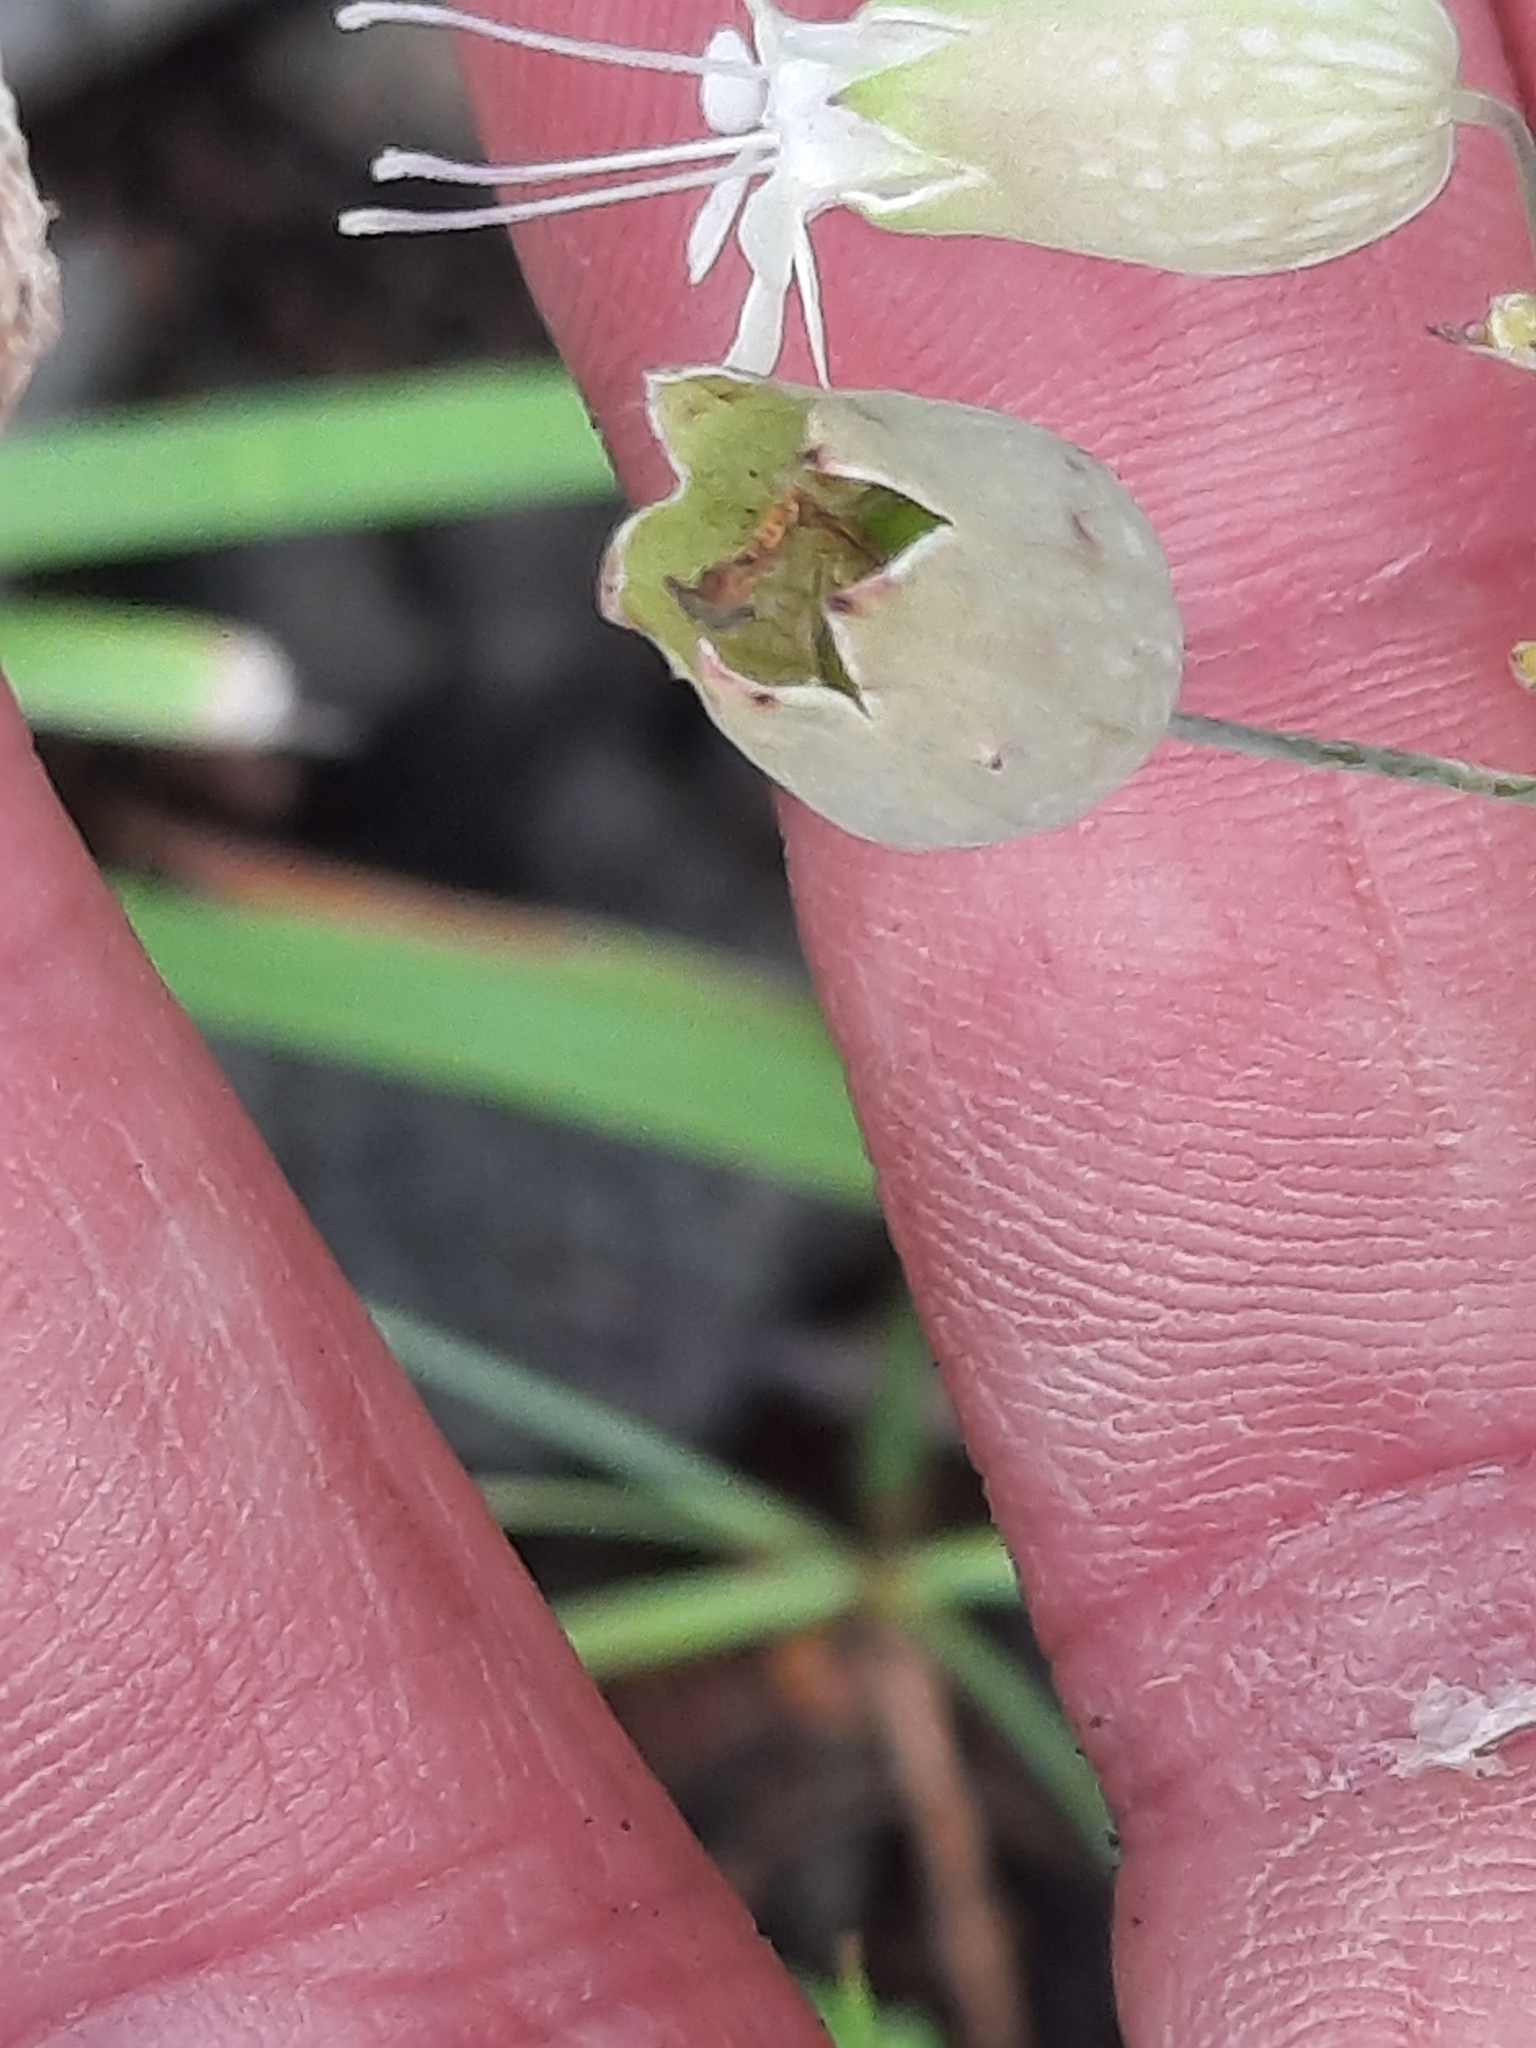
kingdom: Plantae
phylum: Tracheophyta
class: Magnoliopsida
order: Caryophyllales
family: Caryophyllaceae
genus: Silene
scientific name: Silene vulgaris
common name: Bladder campion
